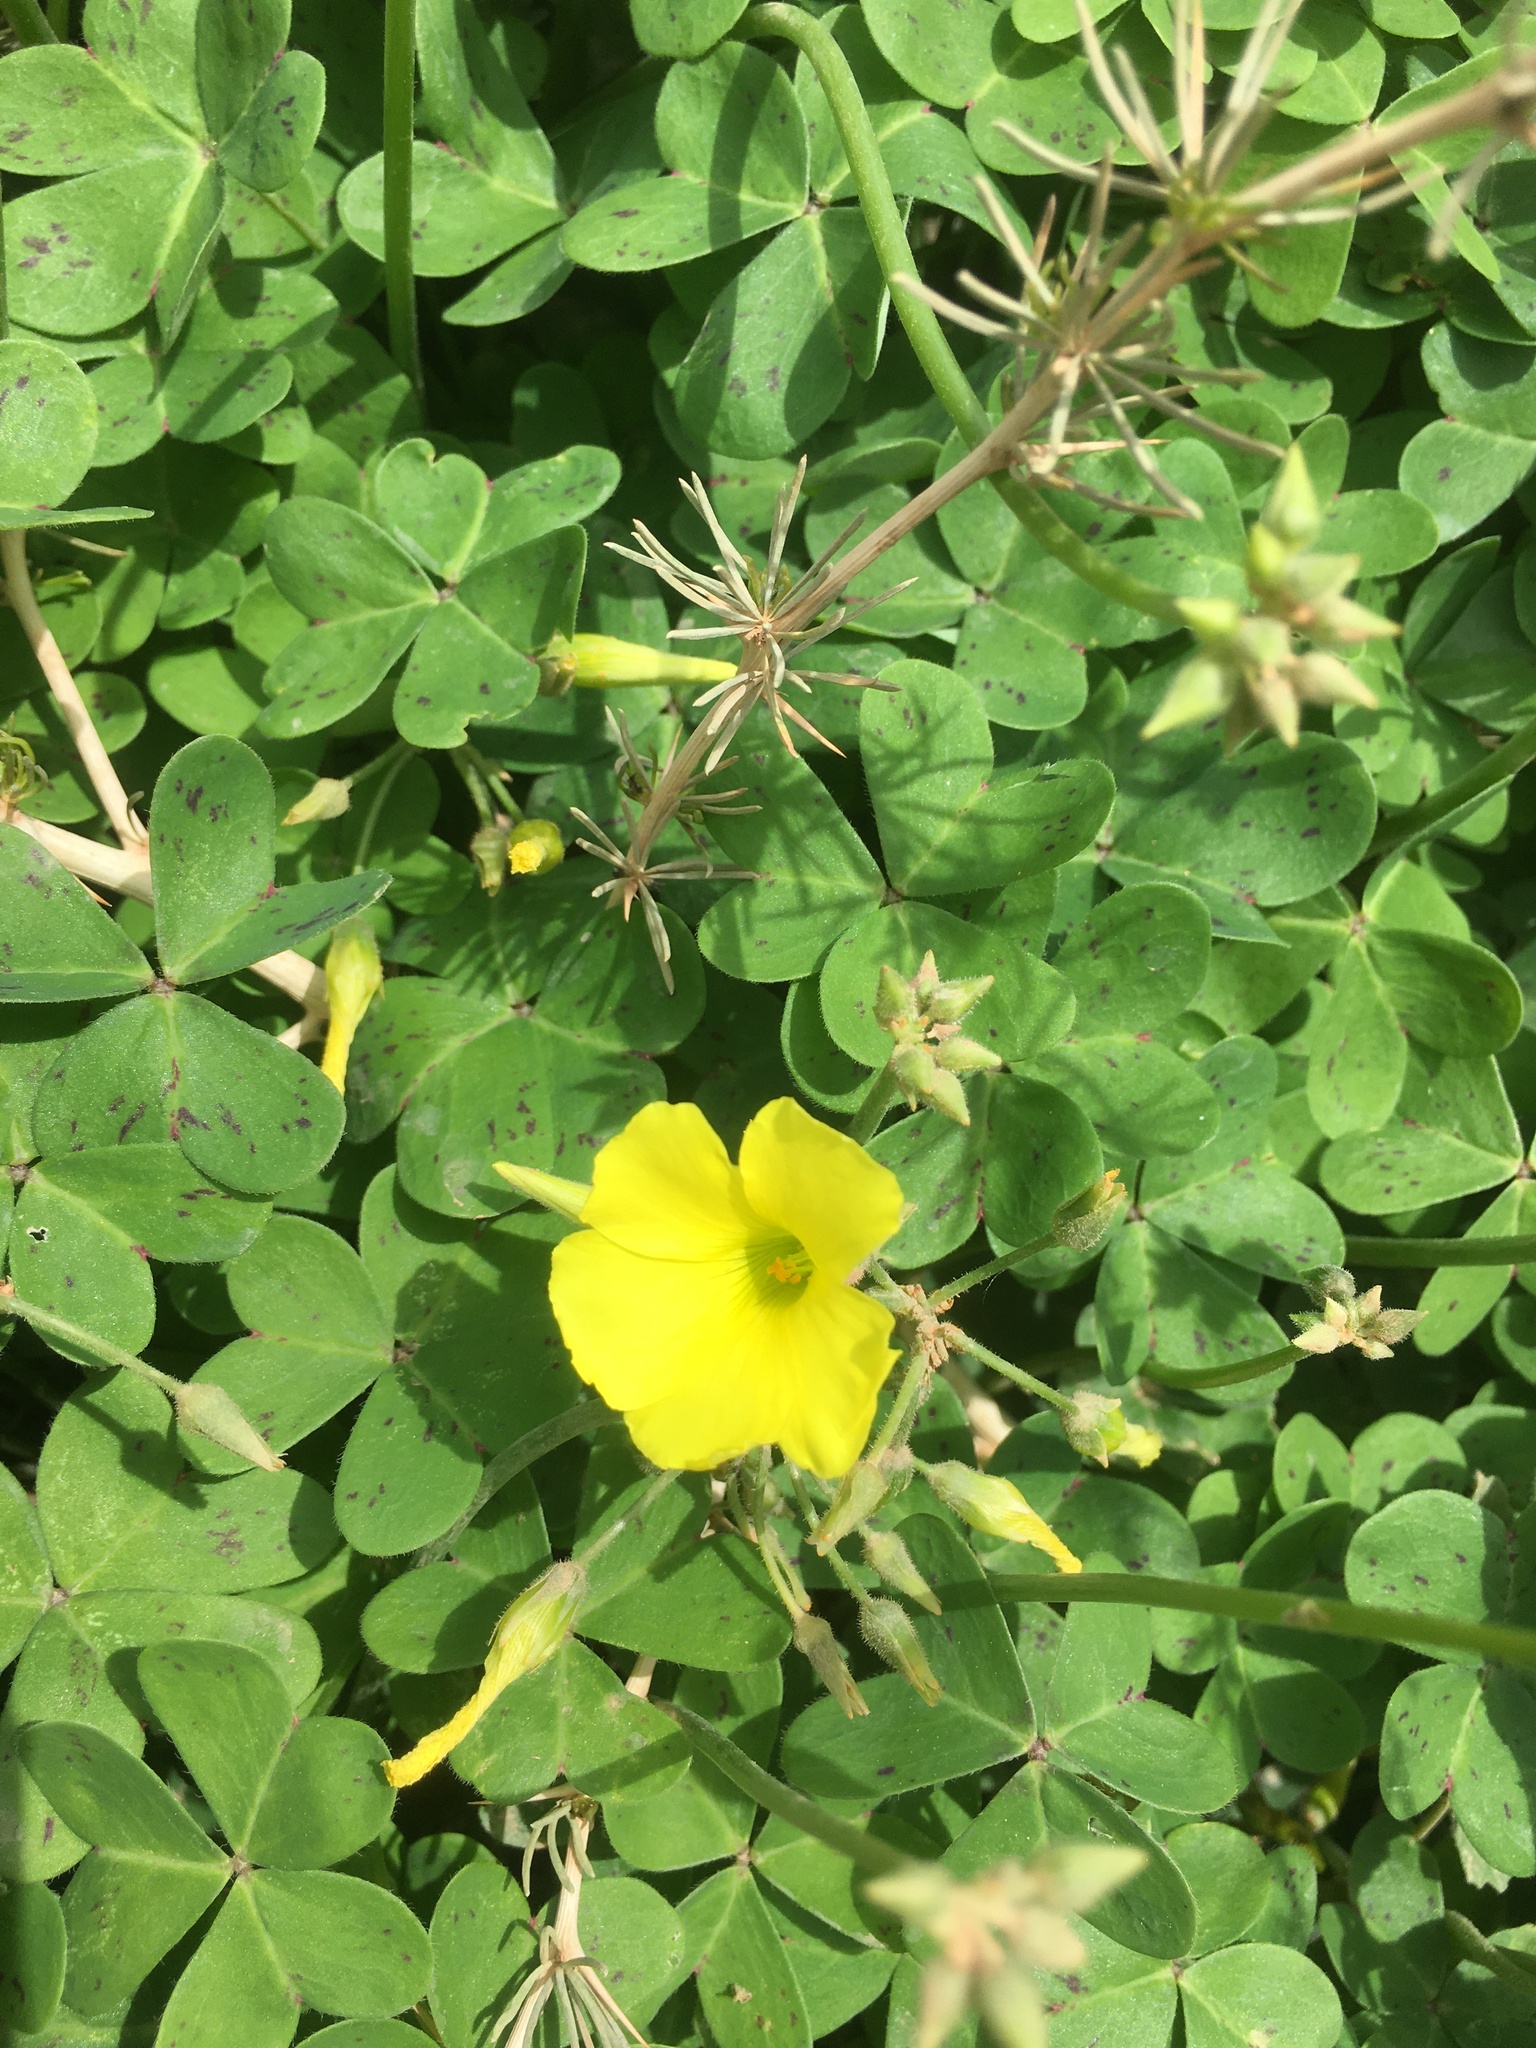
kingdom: Plantae
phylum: Tracheophyta
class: Magnoliopsida
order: Oxalidales
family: Oxalidaceae
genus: Oxalis
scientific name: Oxalis pes-caprae
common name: Bermuda-buttercup
